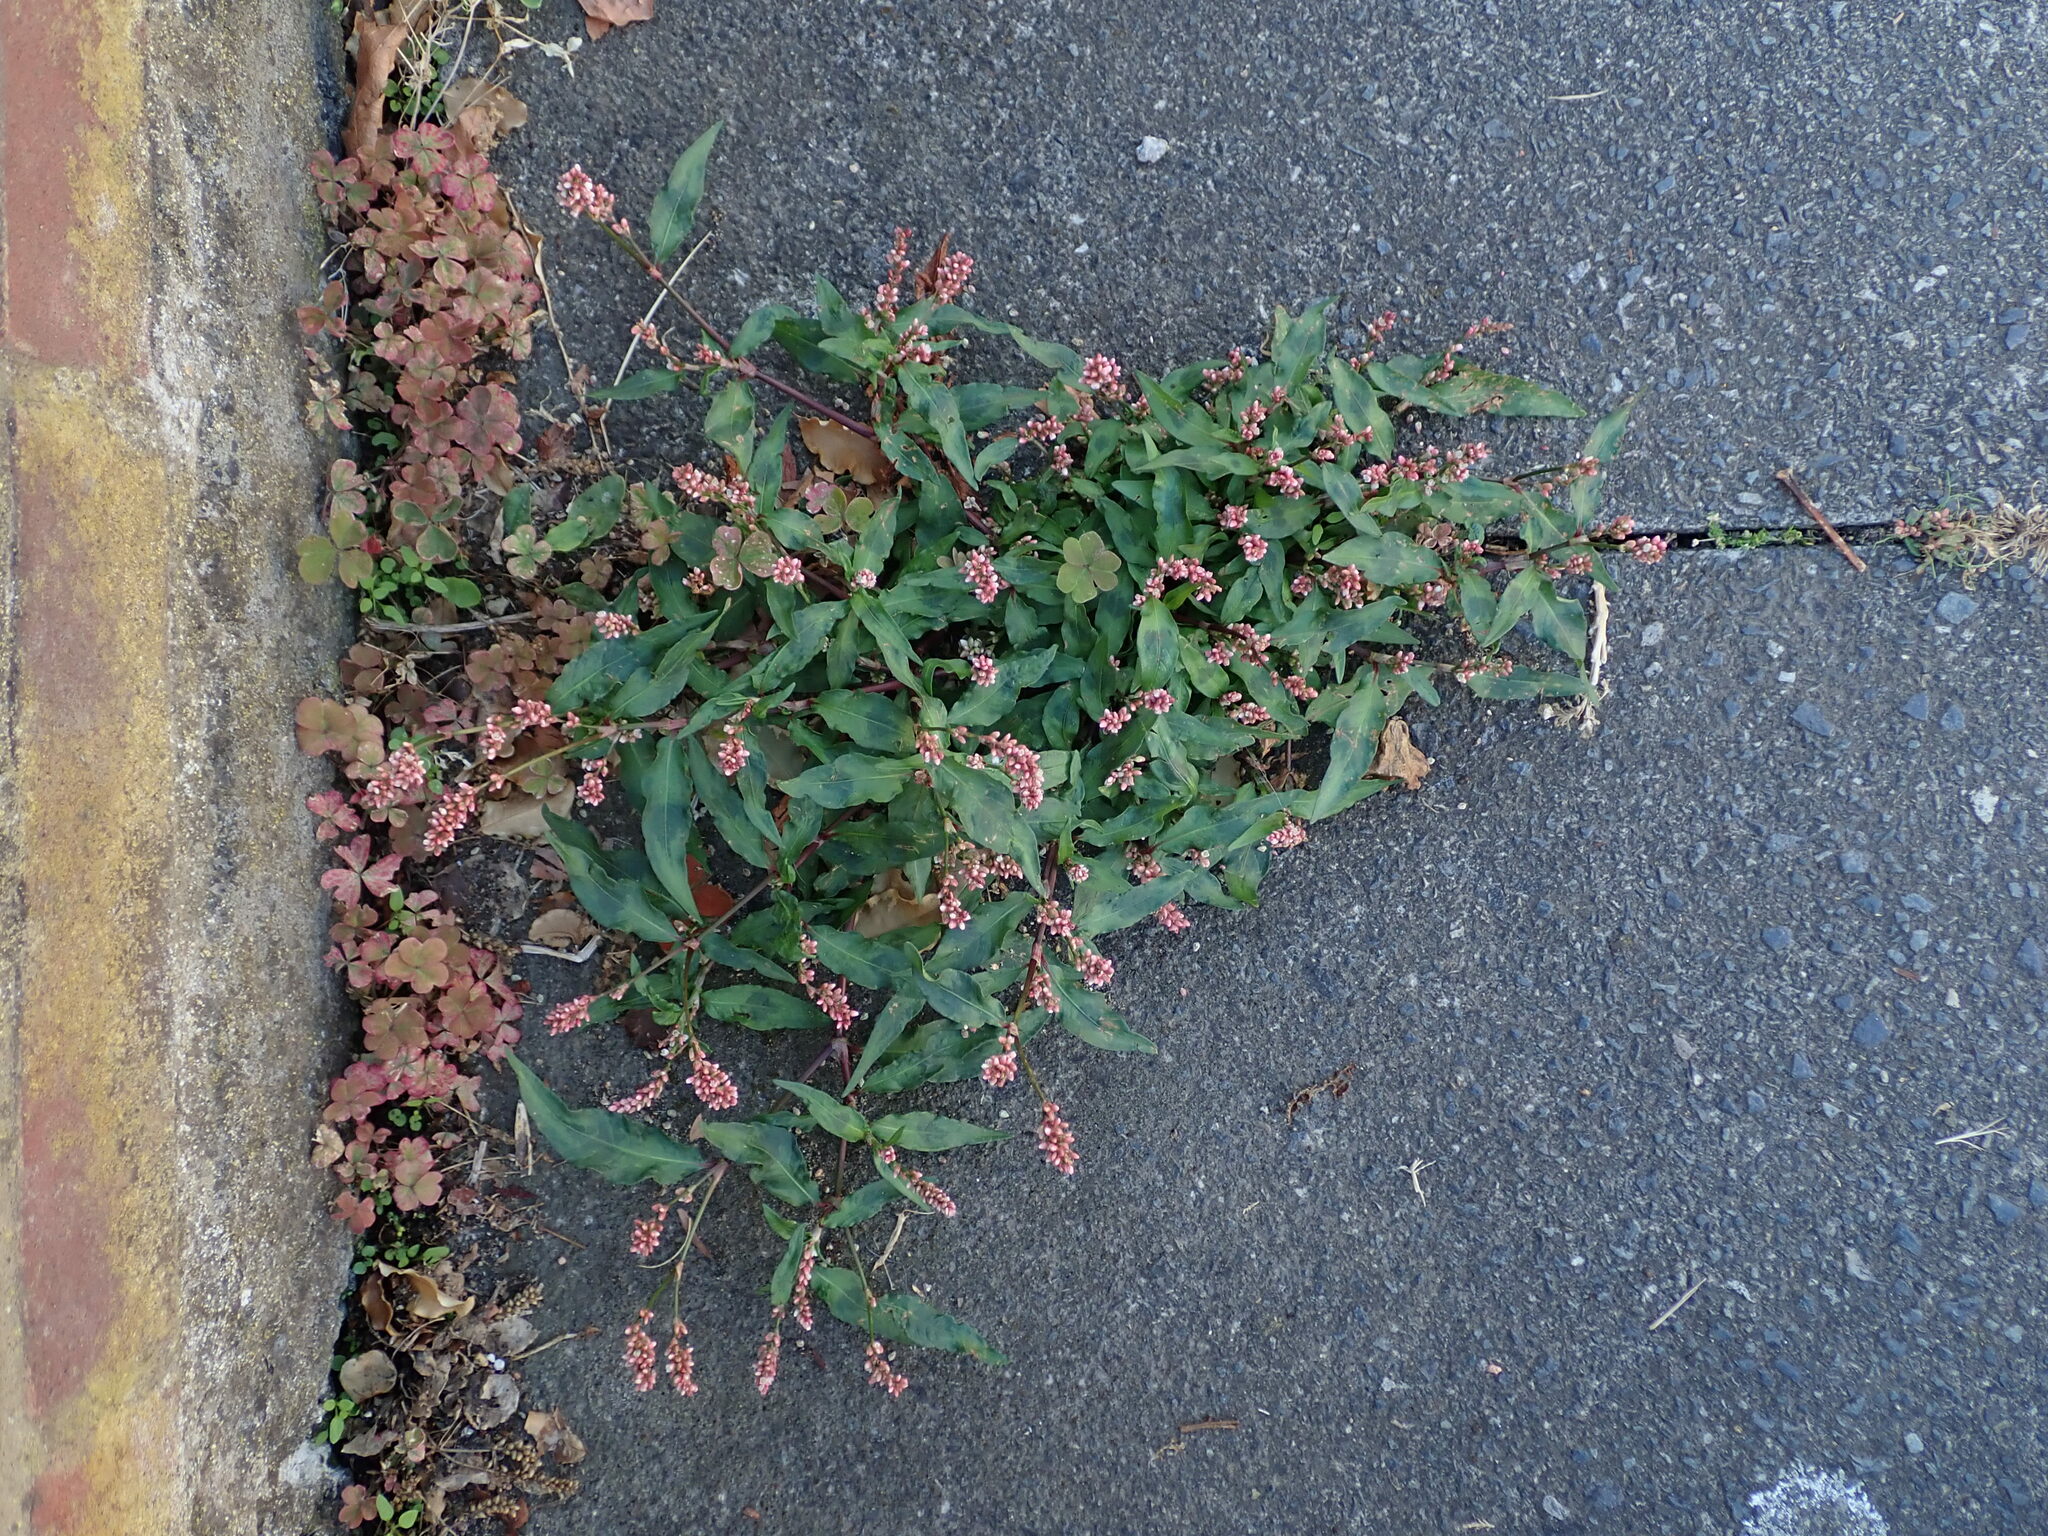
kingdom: Plantae
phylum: Tracheophyta
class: Magnoliopsida
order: Caryophyllales
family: Polygonaceae
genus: Persicaria
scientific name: Persicaria maculosa
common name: Redshank
